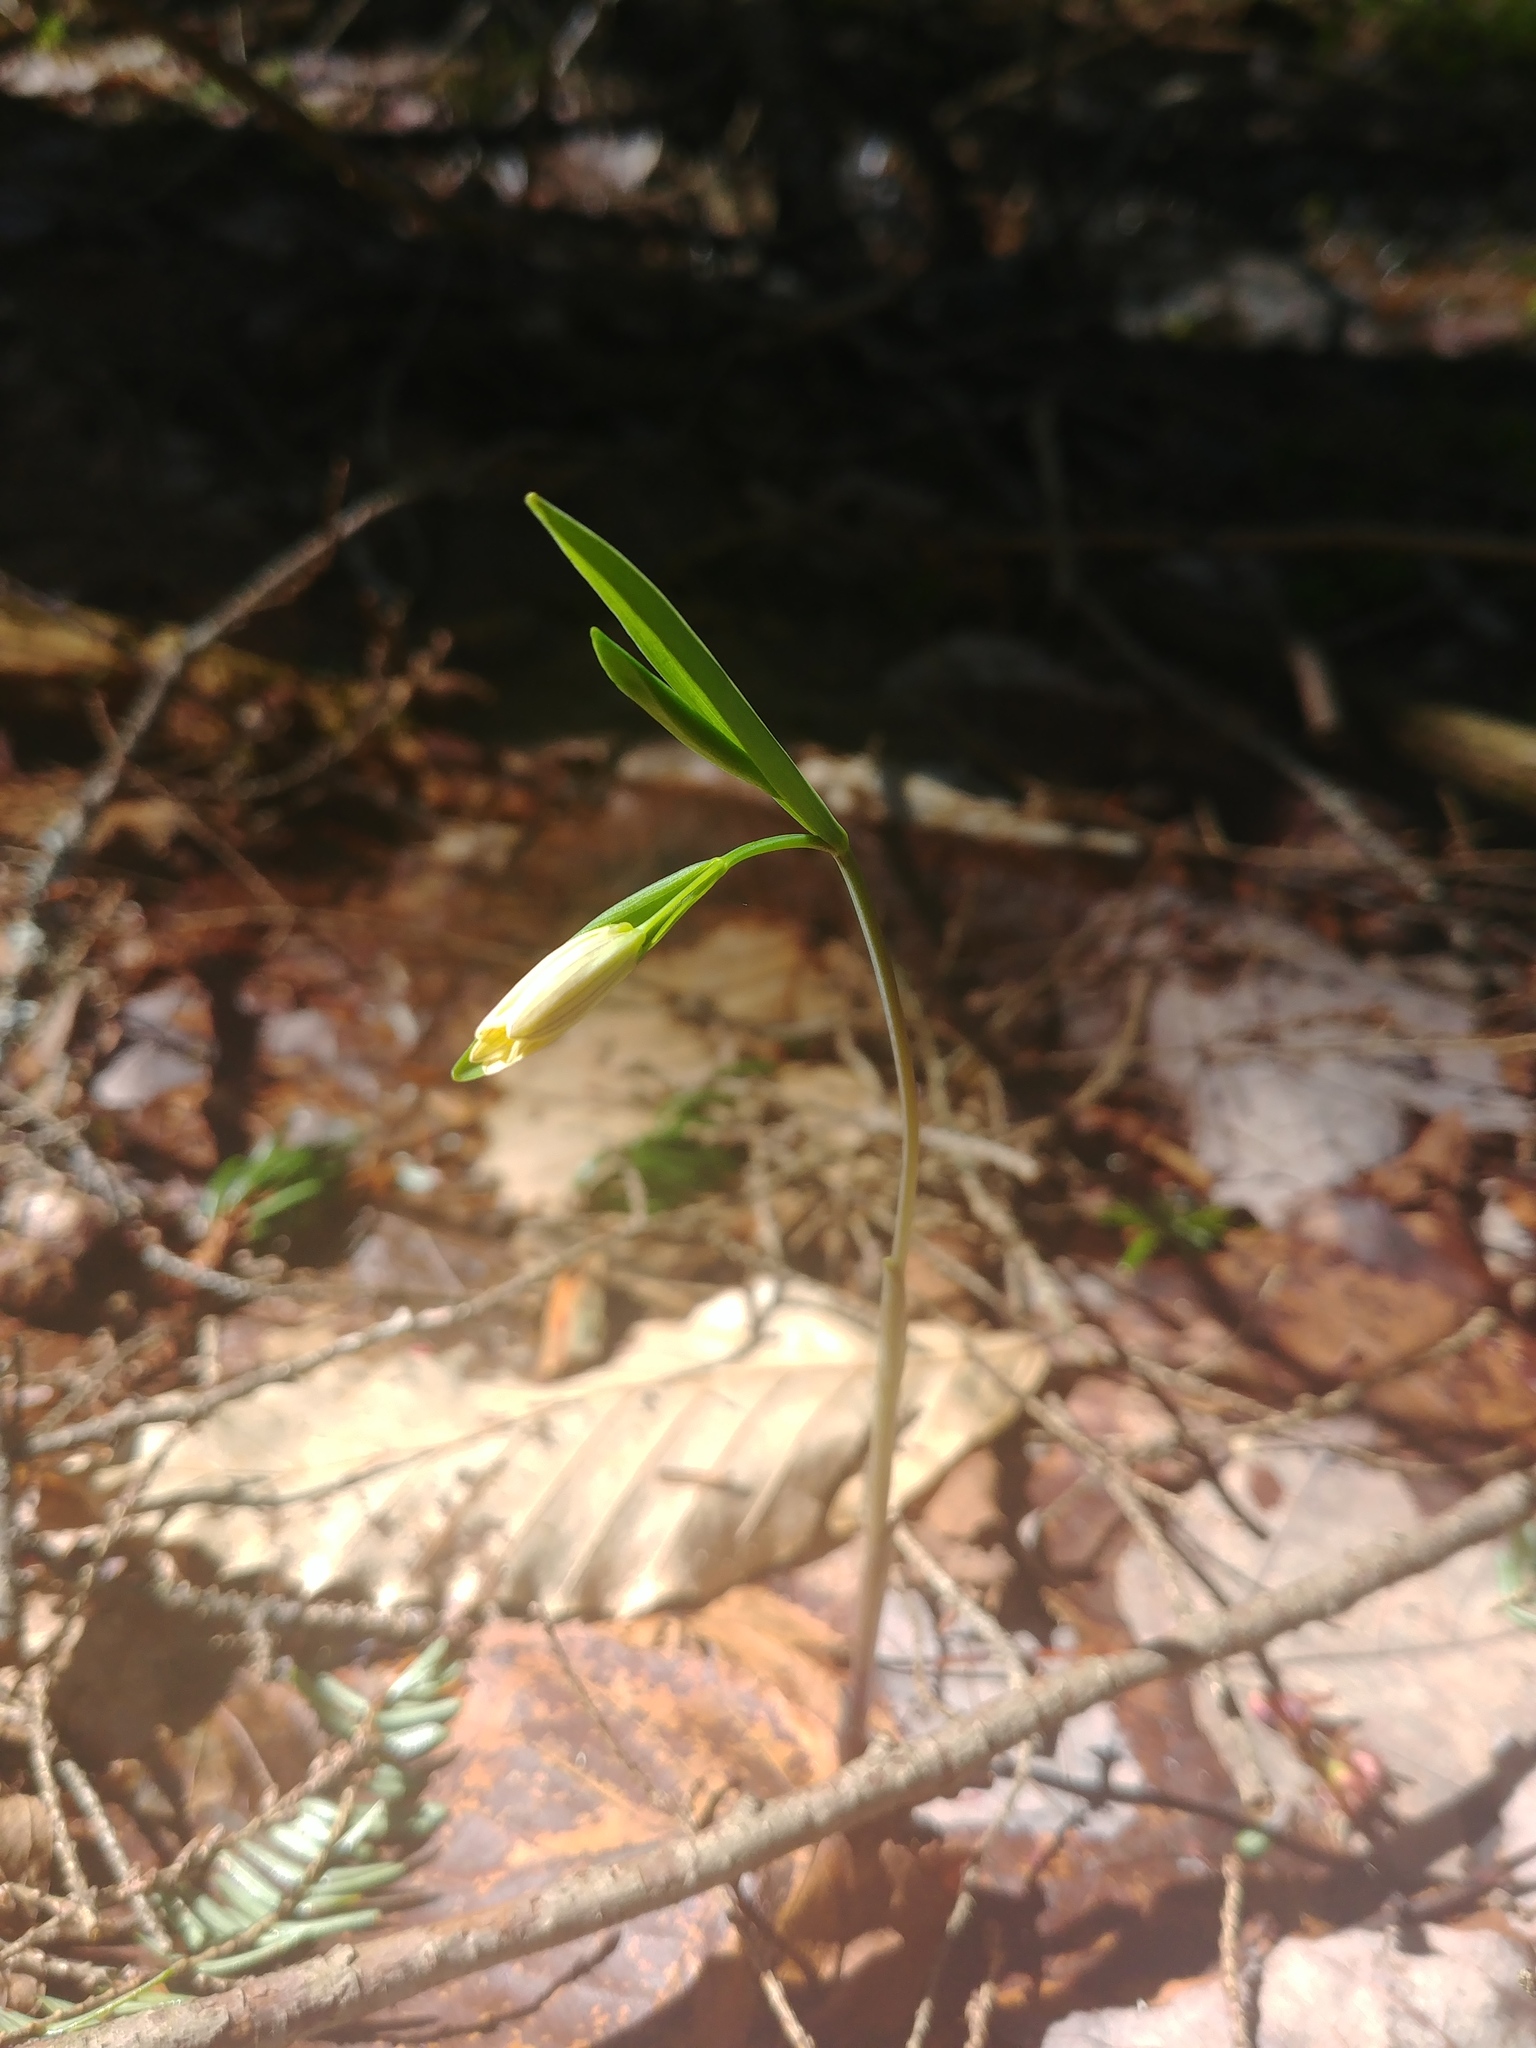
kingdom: Plantae
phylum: Tracheophyta
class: Liliopsida
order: Liliales
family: Colchicaceae
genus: Uvularia
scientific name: Uvularia sessilifolia
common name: Straw-lily
